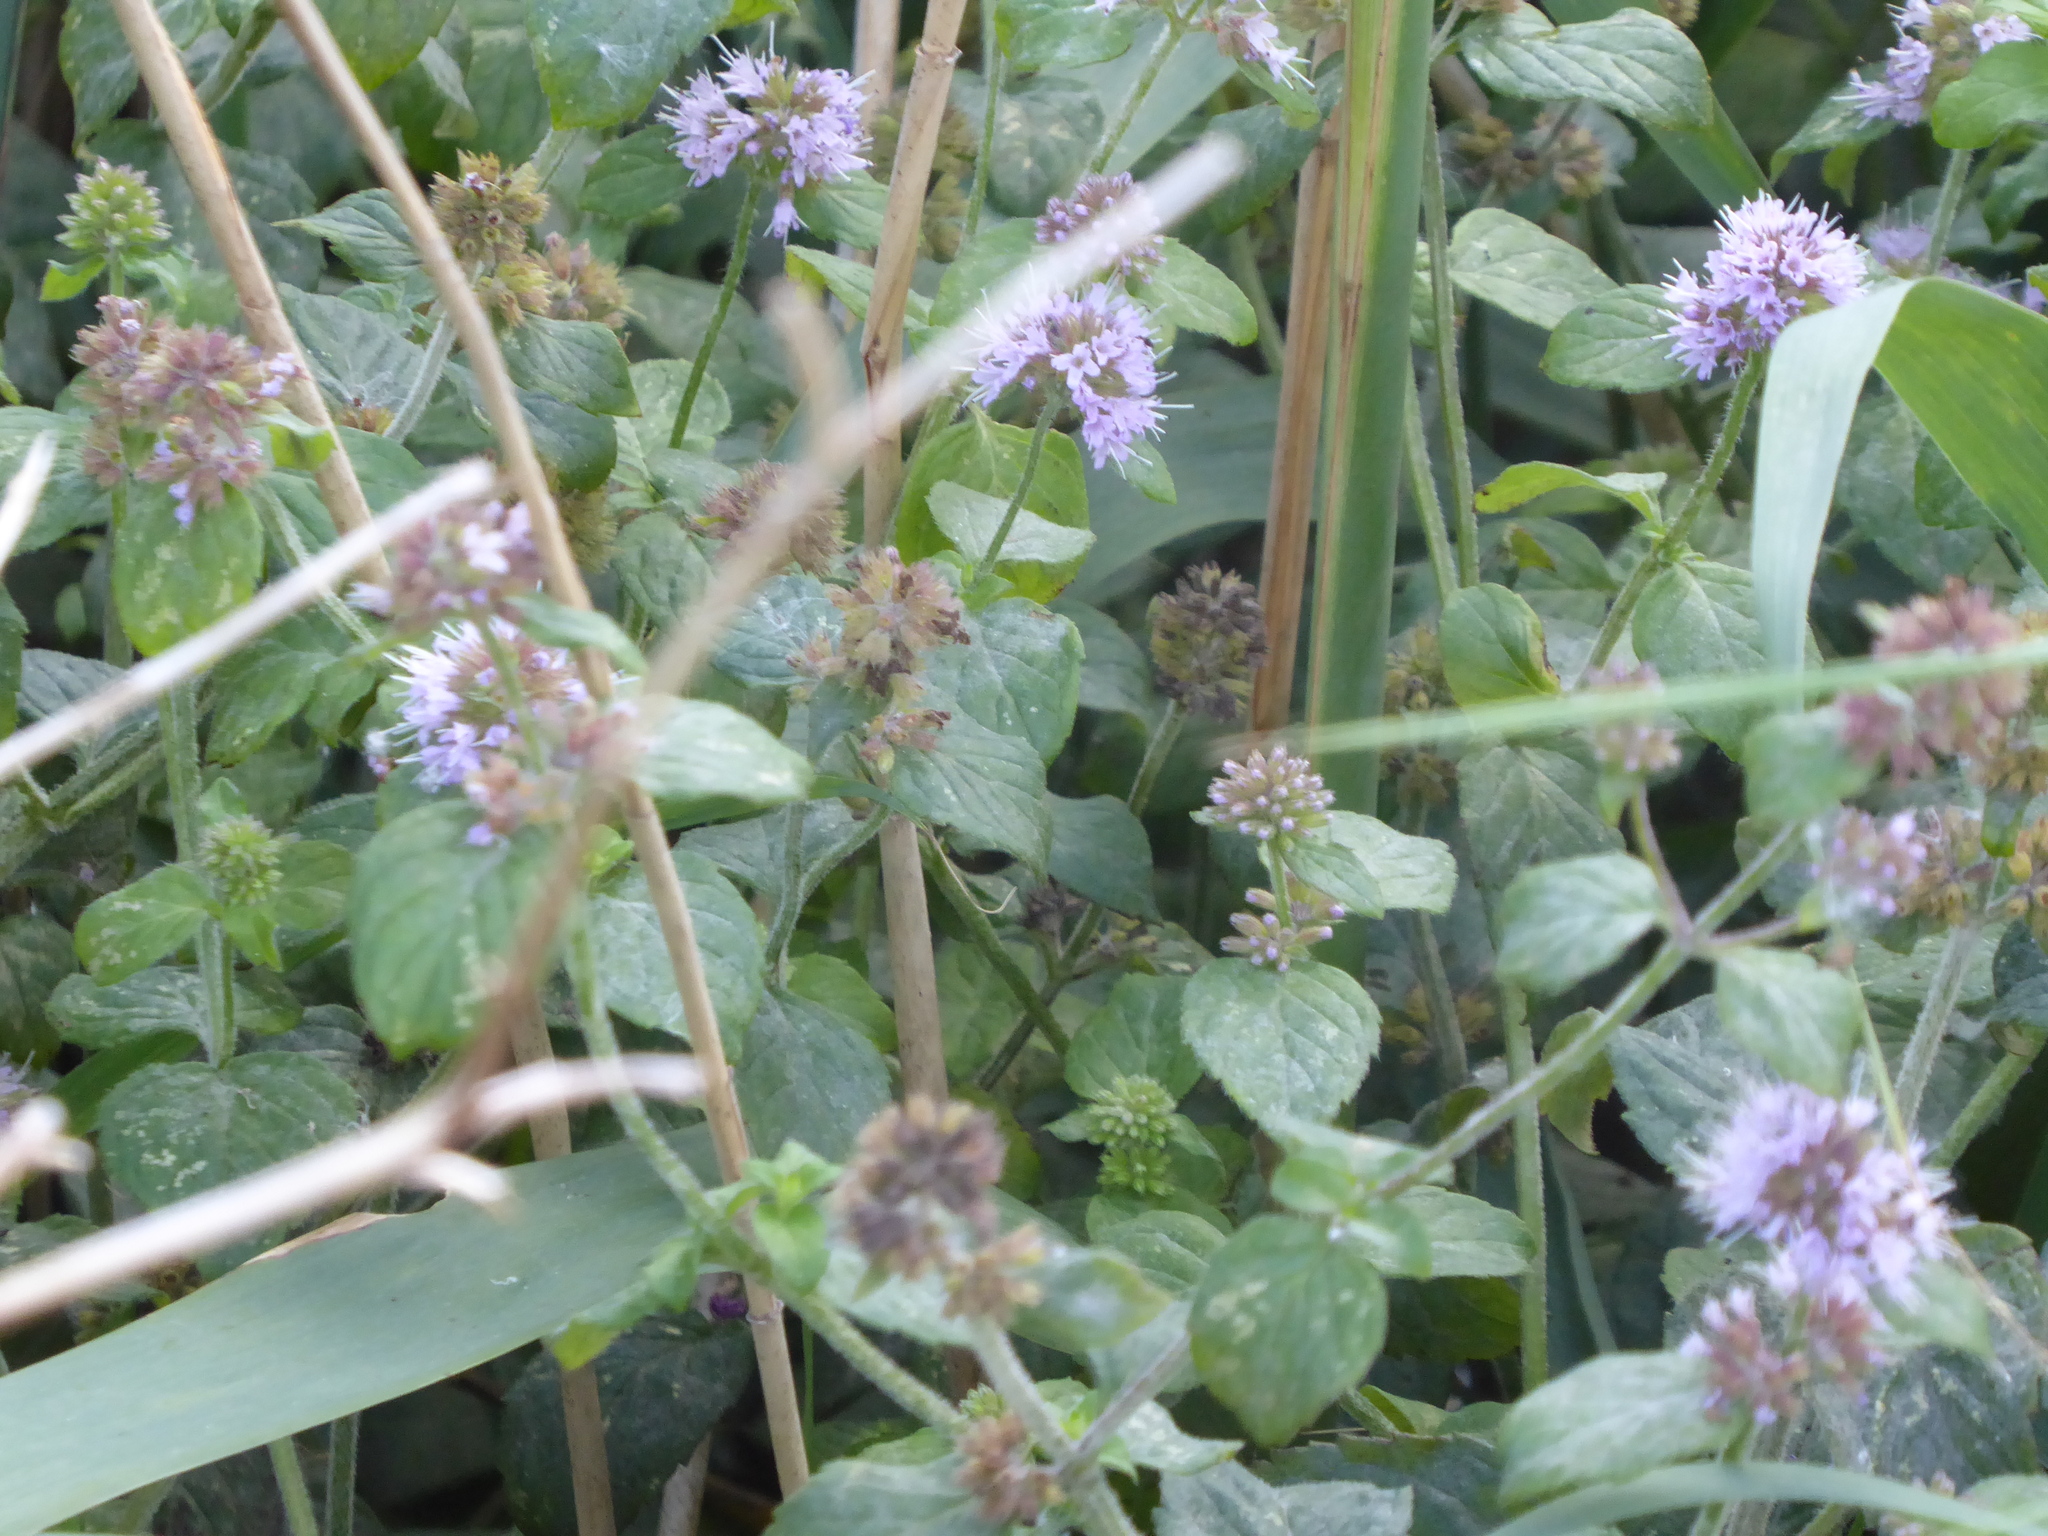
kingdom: Plantae
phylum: Tracheophyta
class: Magnoliopsida
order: Lamiales
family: Lamiaceae
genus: Mentha
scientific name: Mentha aquatica
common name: Water mint
